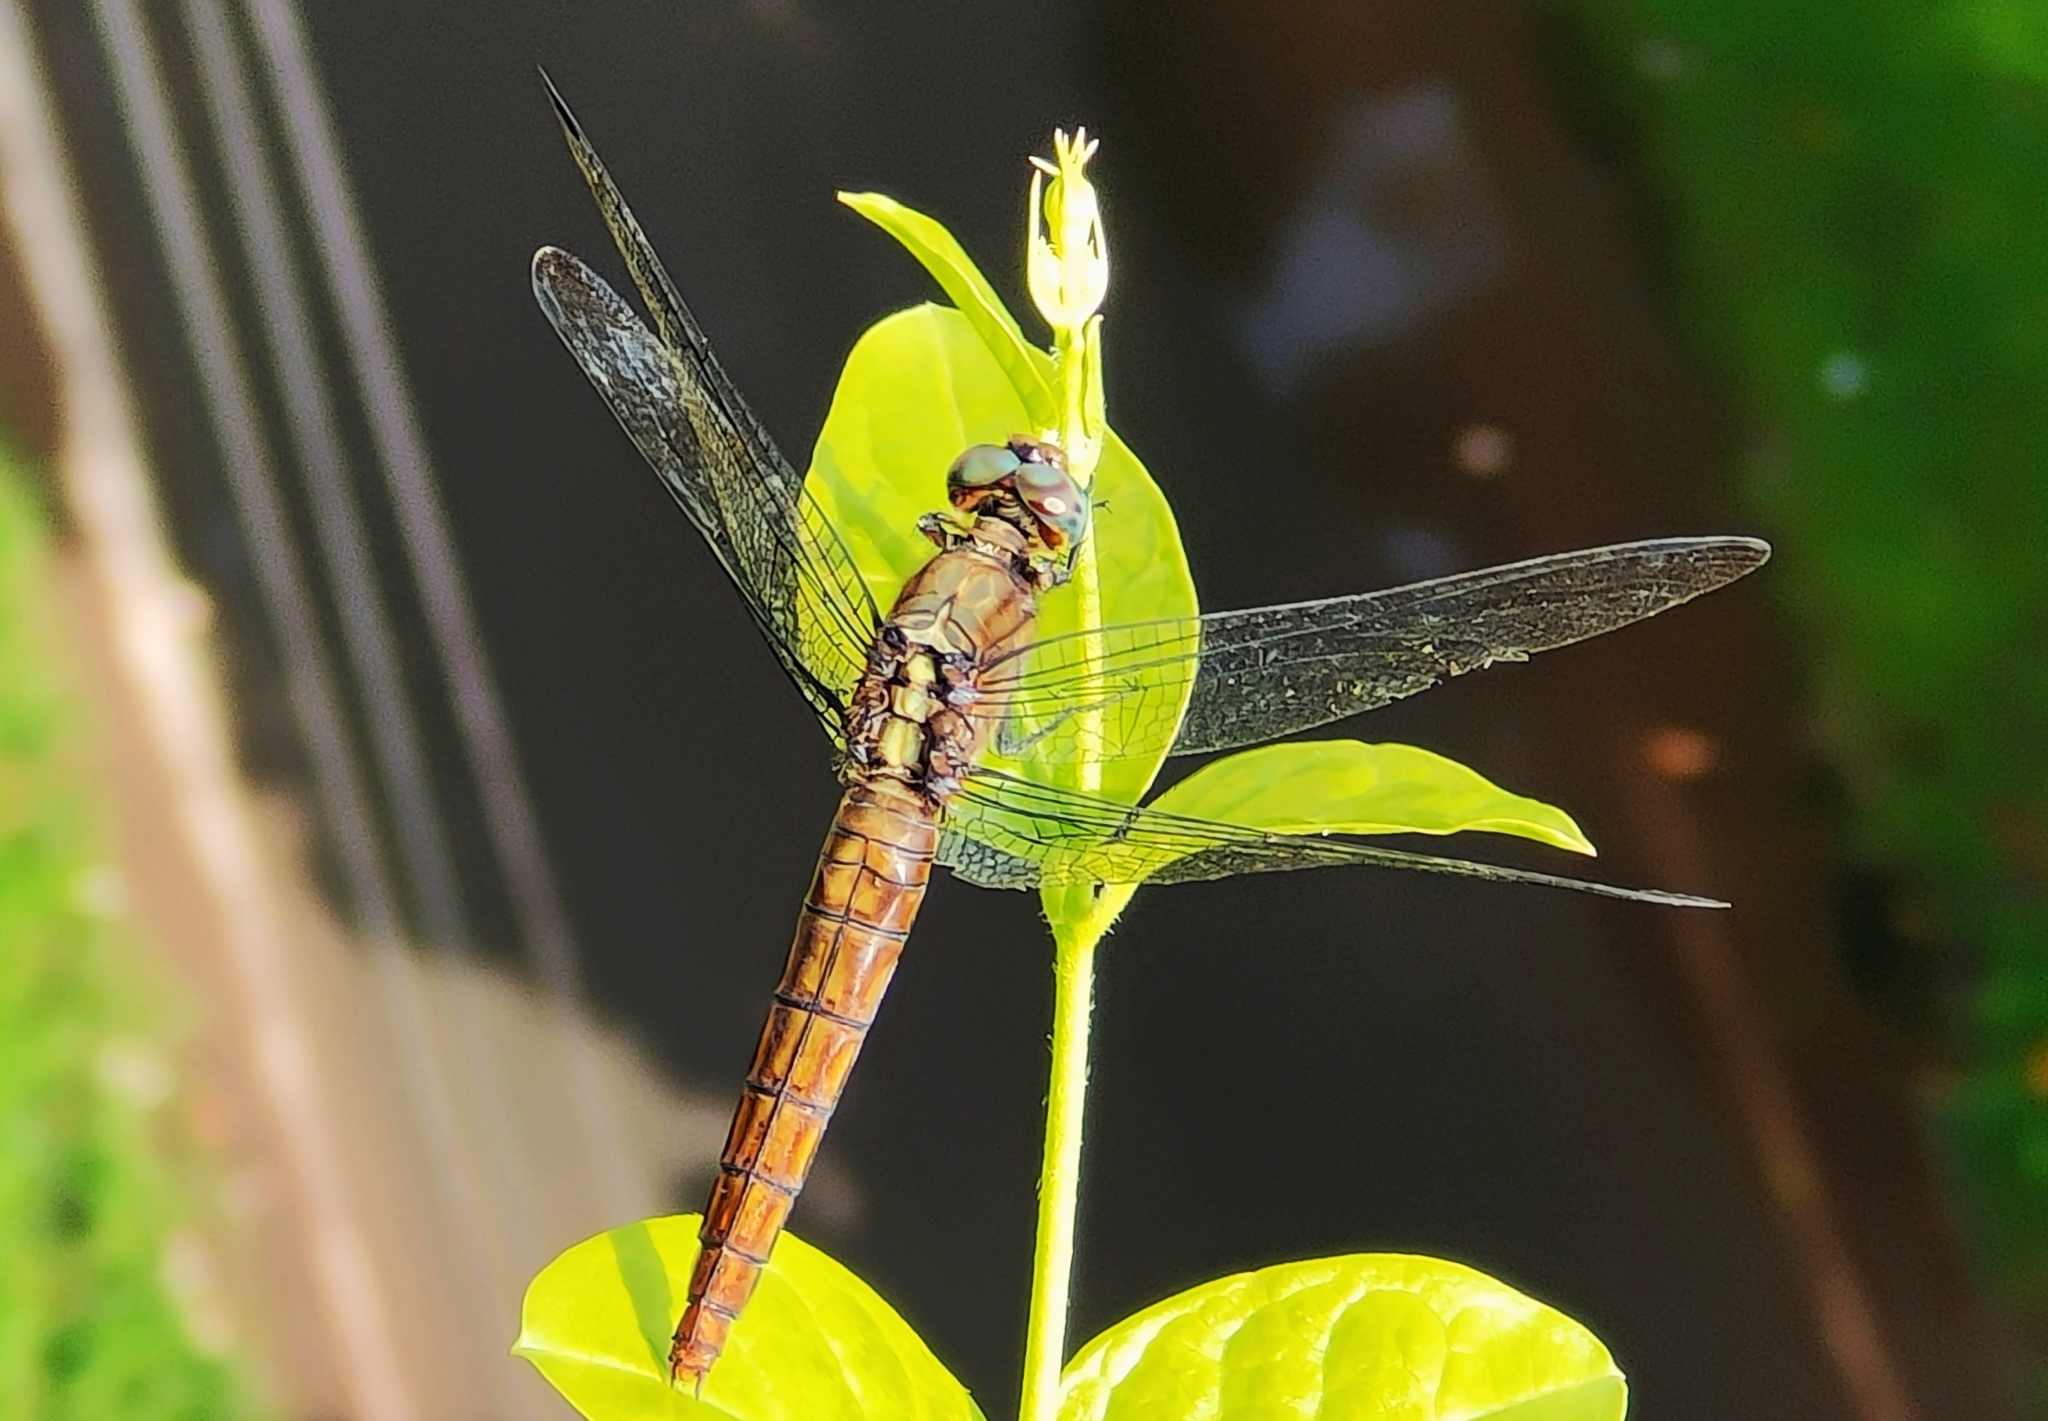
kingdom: Animalia
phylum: Arthropoda
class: Insecta
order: Odonata
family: Libellulidae
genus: Orthetrum
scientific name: Orthetrum pruinosum
